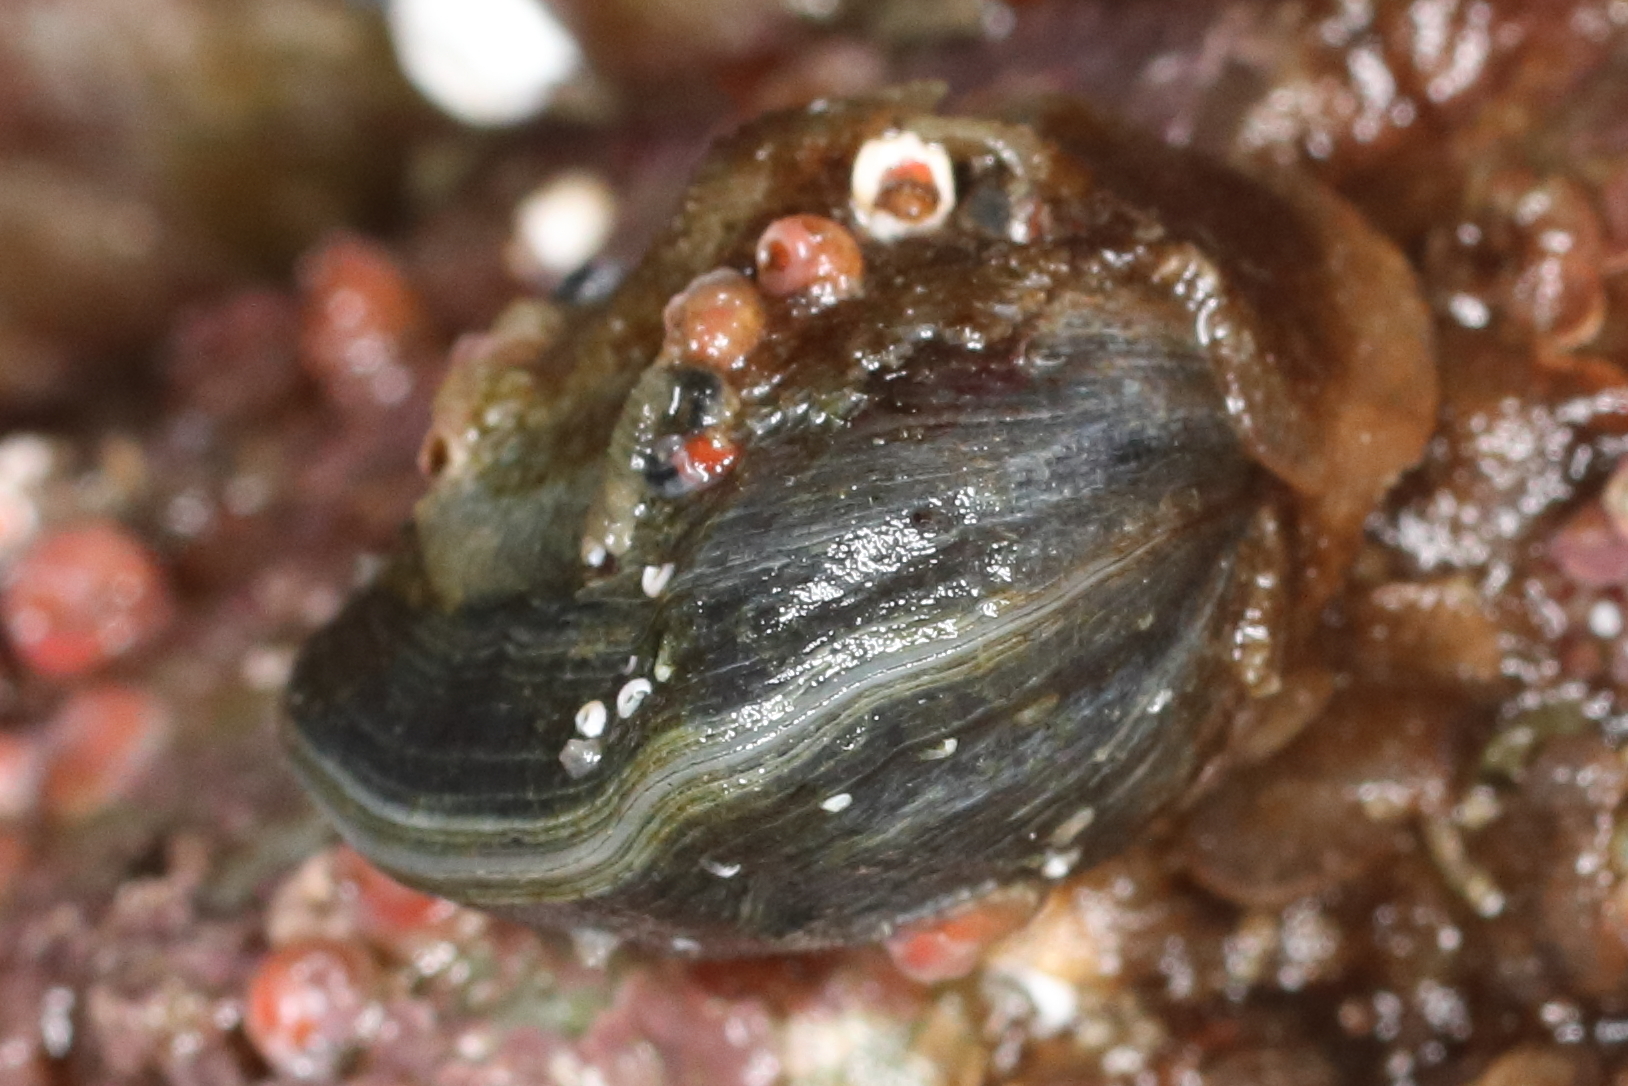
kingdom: Animalia
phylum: Brachiopoda
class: Rhynchonellata
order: Rhynchonellida
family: Hemithirididae
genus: Hemithiris
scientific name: Hemithiris psittacea
